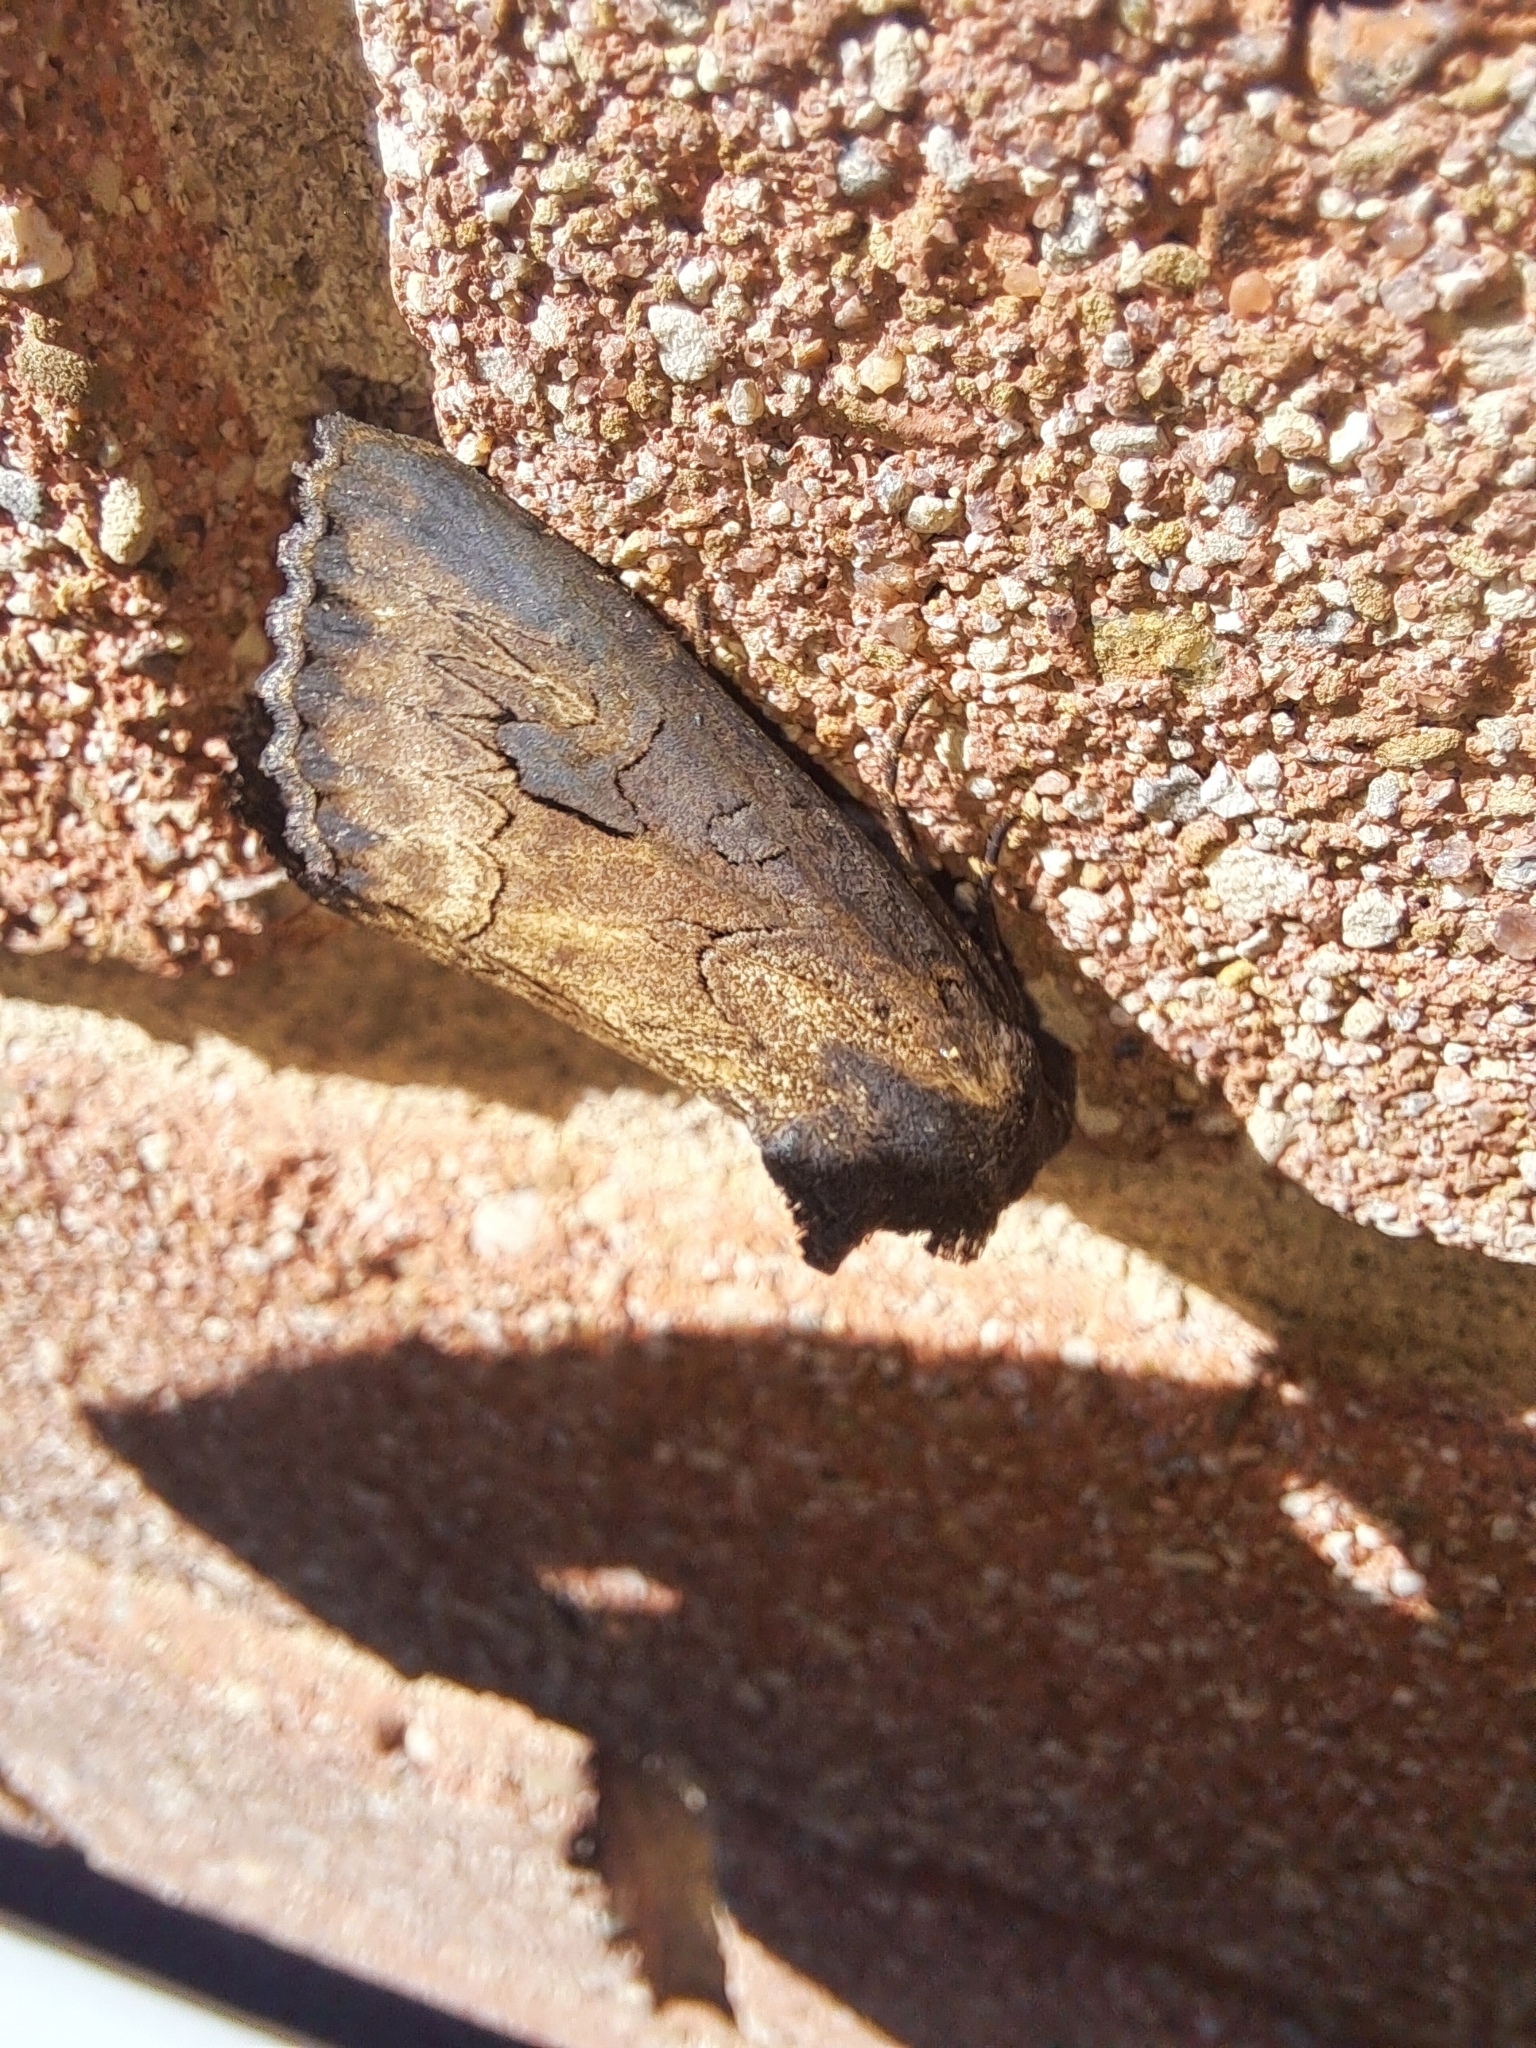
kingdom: Animalia
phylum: Arthropoda
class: Insecta
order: Lepidoptera
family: Noctuidae
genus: Macronoctua
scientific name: Macronoctua onusta
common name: Iris borer
